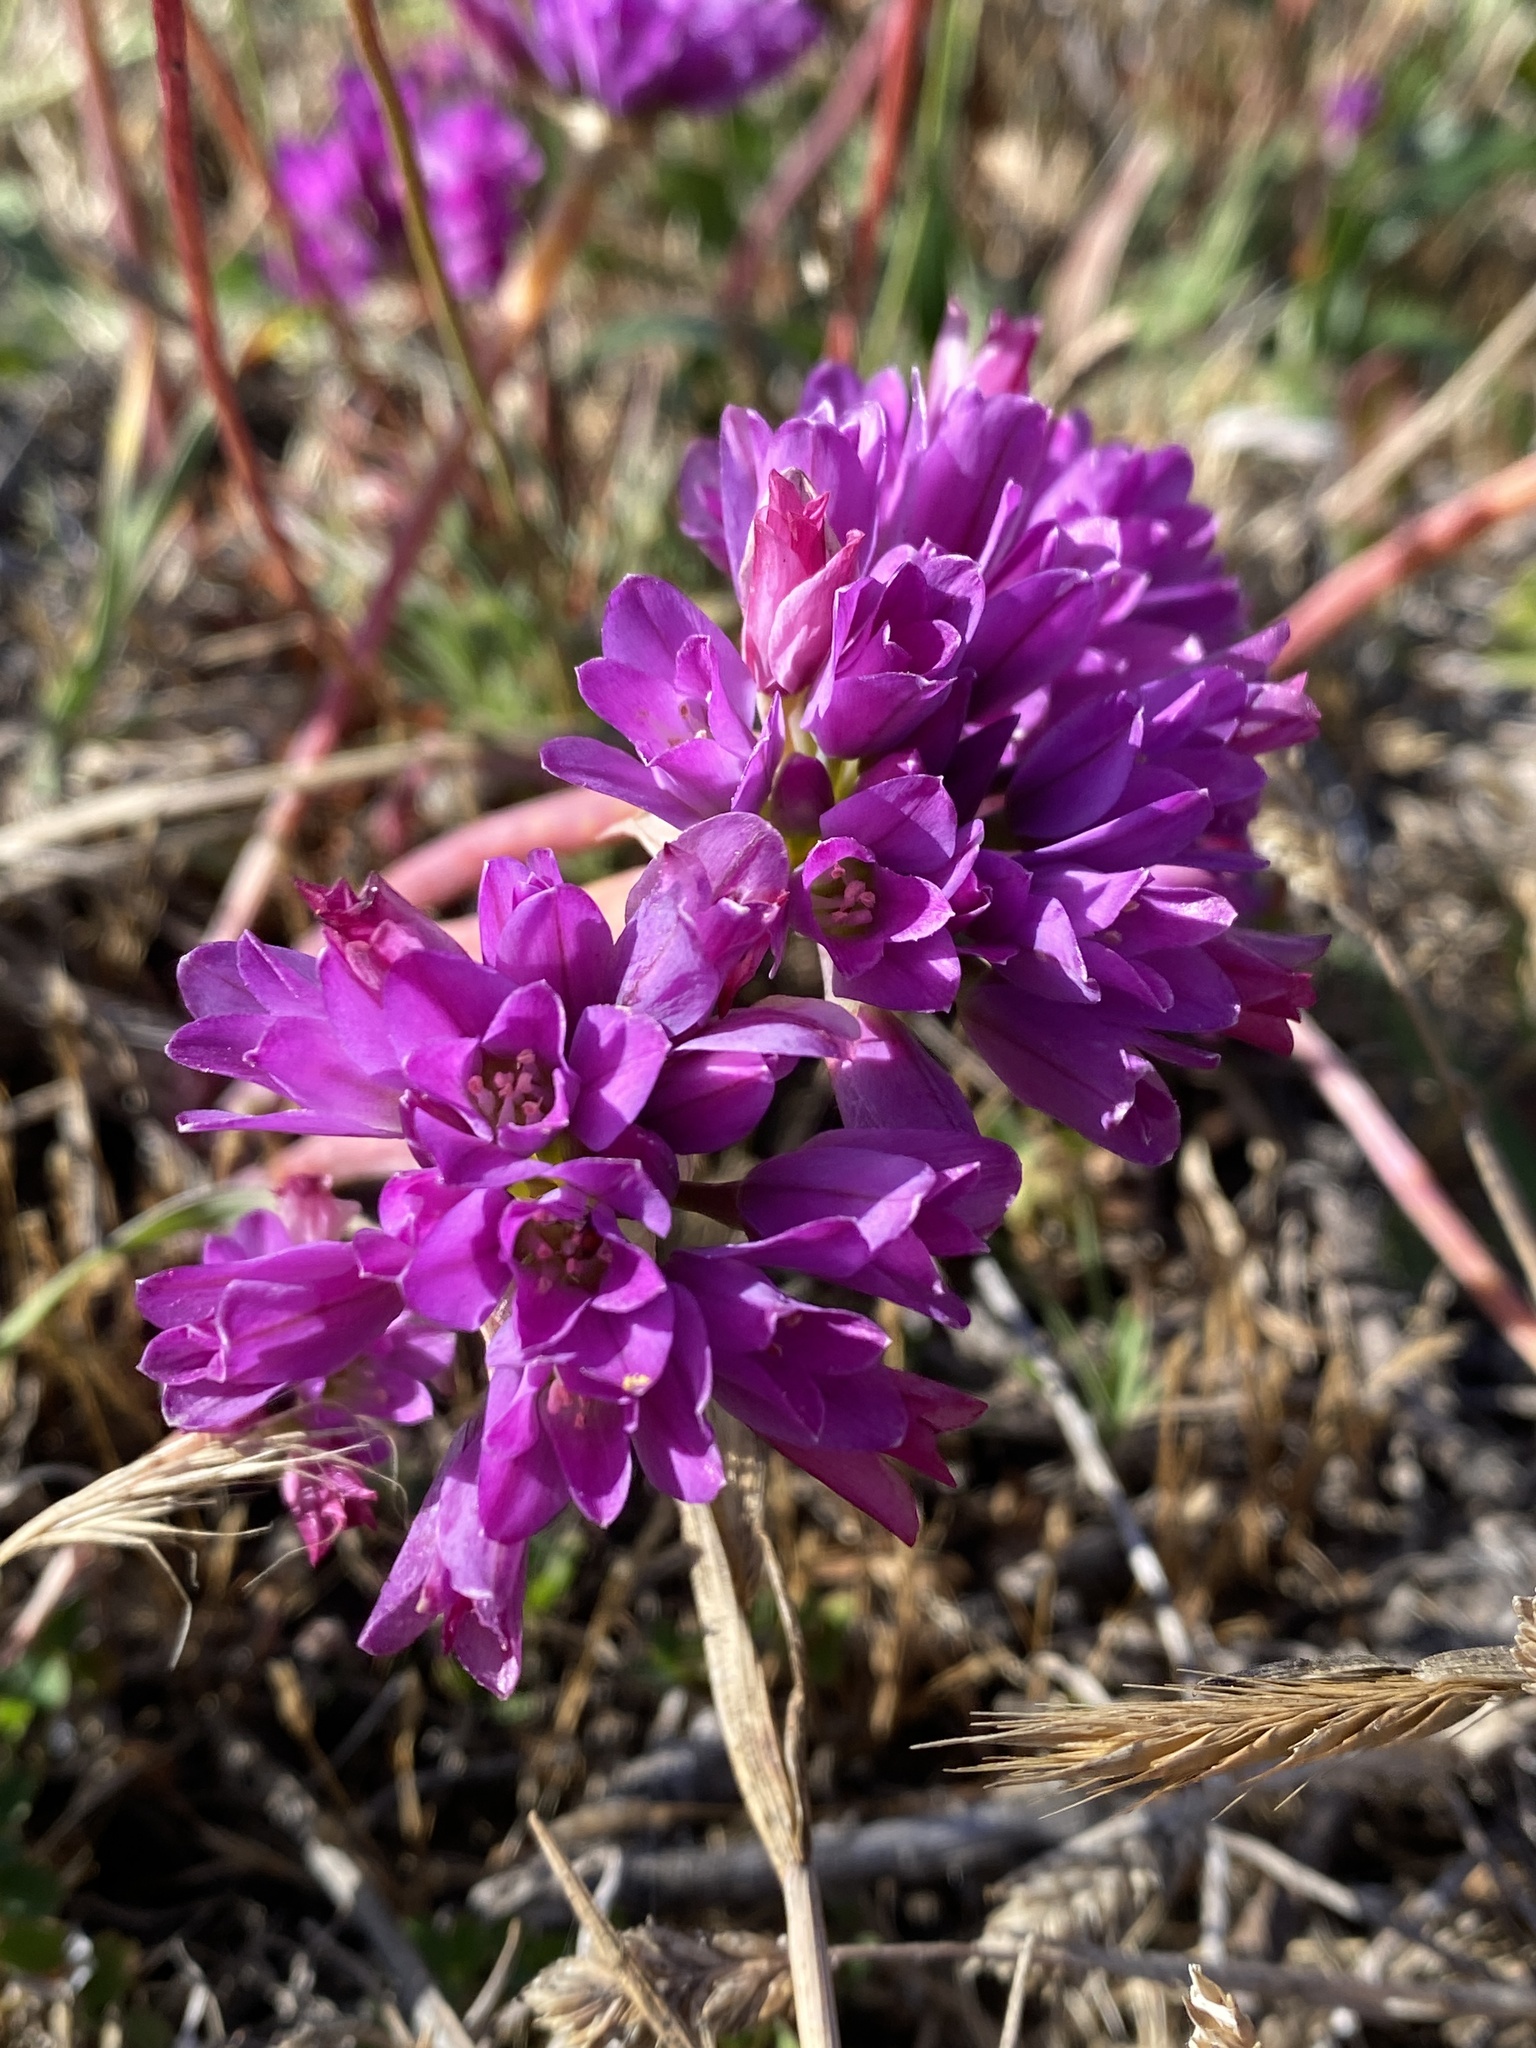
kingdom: Plantae
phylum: Tracheophyta
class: Liliopsida
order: Asparagales
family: Amaryllidaceae
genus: Allium
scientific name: Allium dichlamydeum
